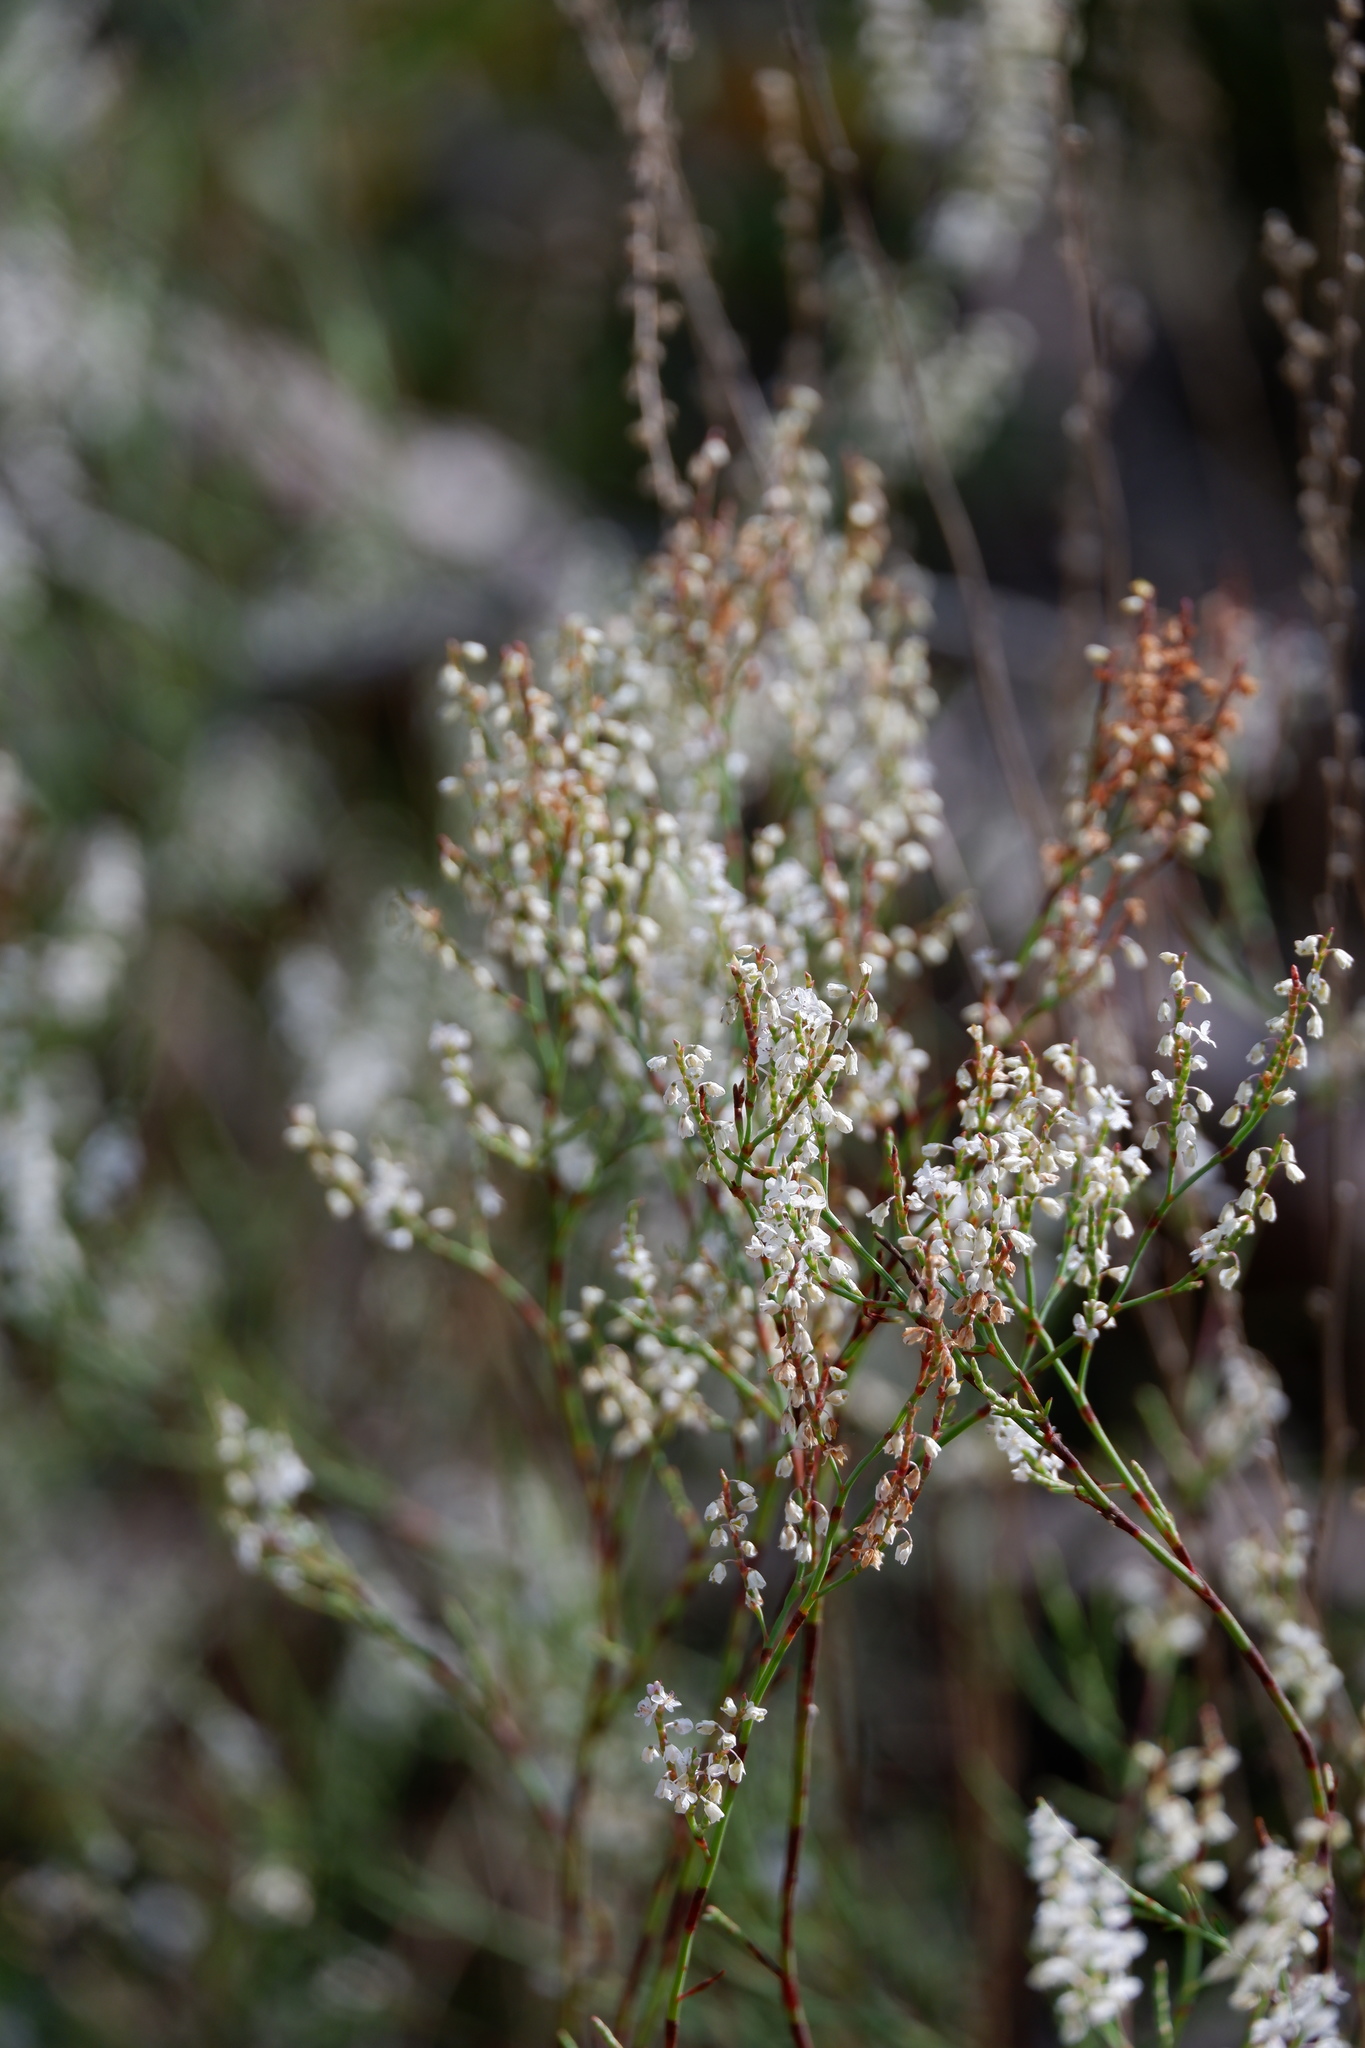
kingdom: Plantae
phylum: Tracheophyta
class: Magnoliopsida
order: Caryophyllales
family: Polygonaceae
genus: Polygonella
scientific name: Polygonella articulata
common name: Coastal jointweed
